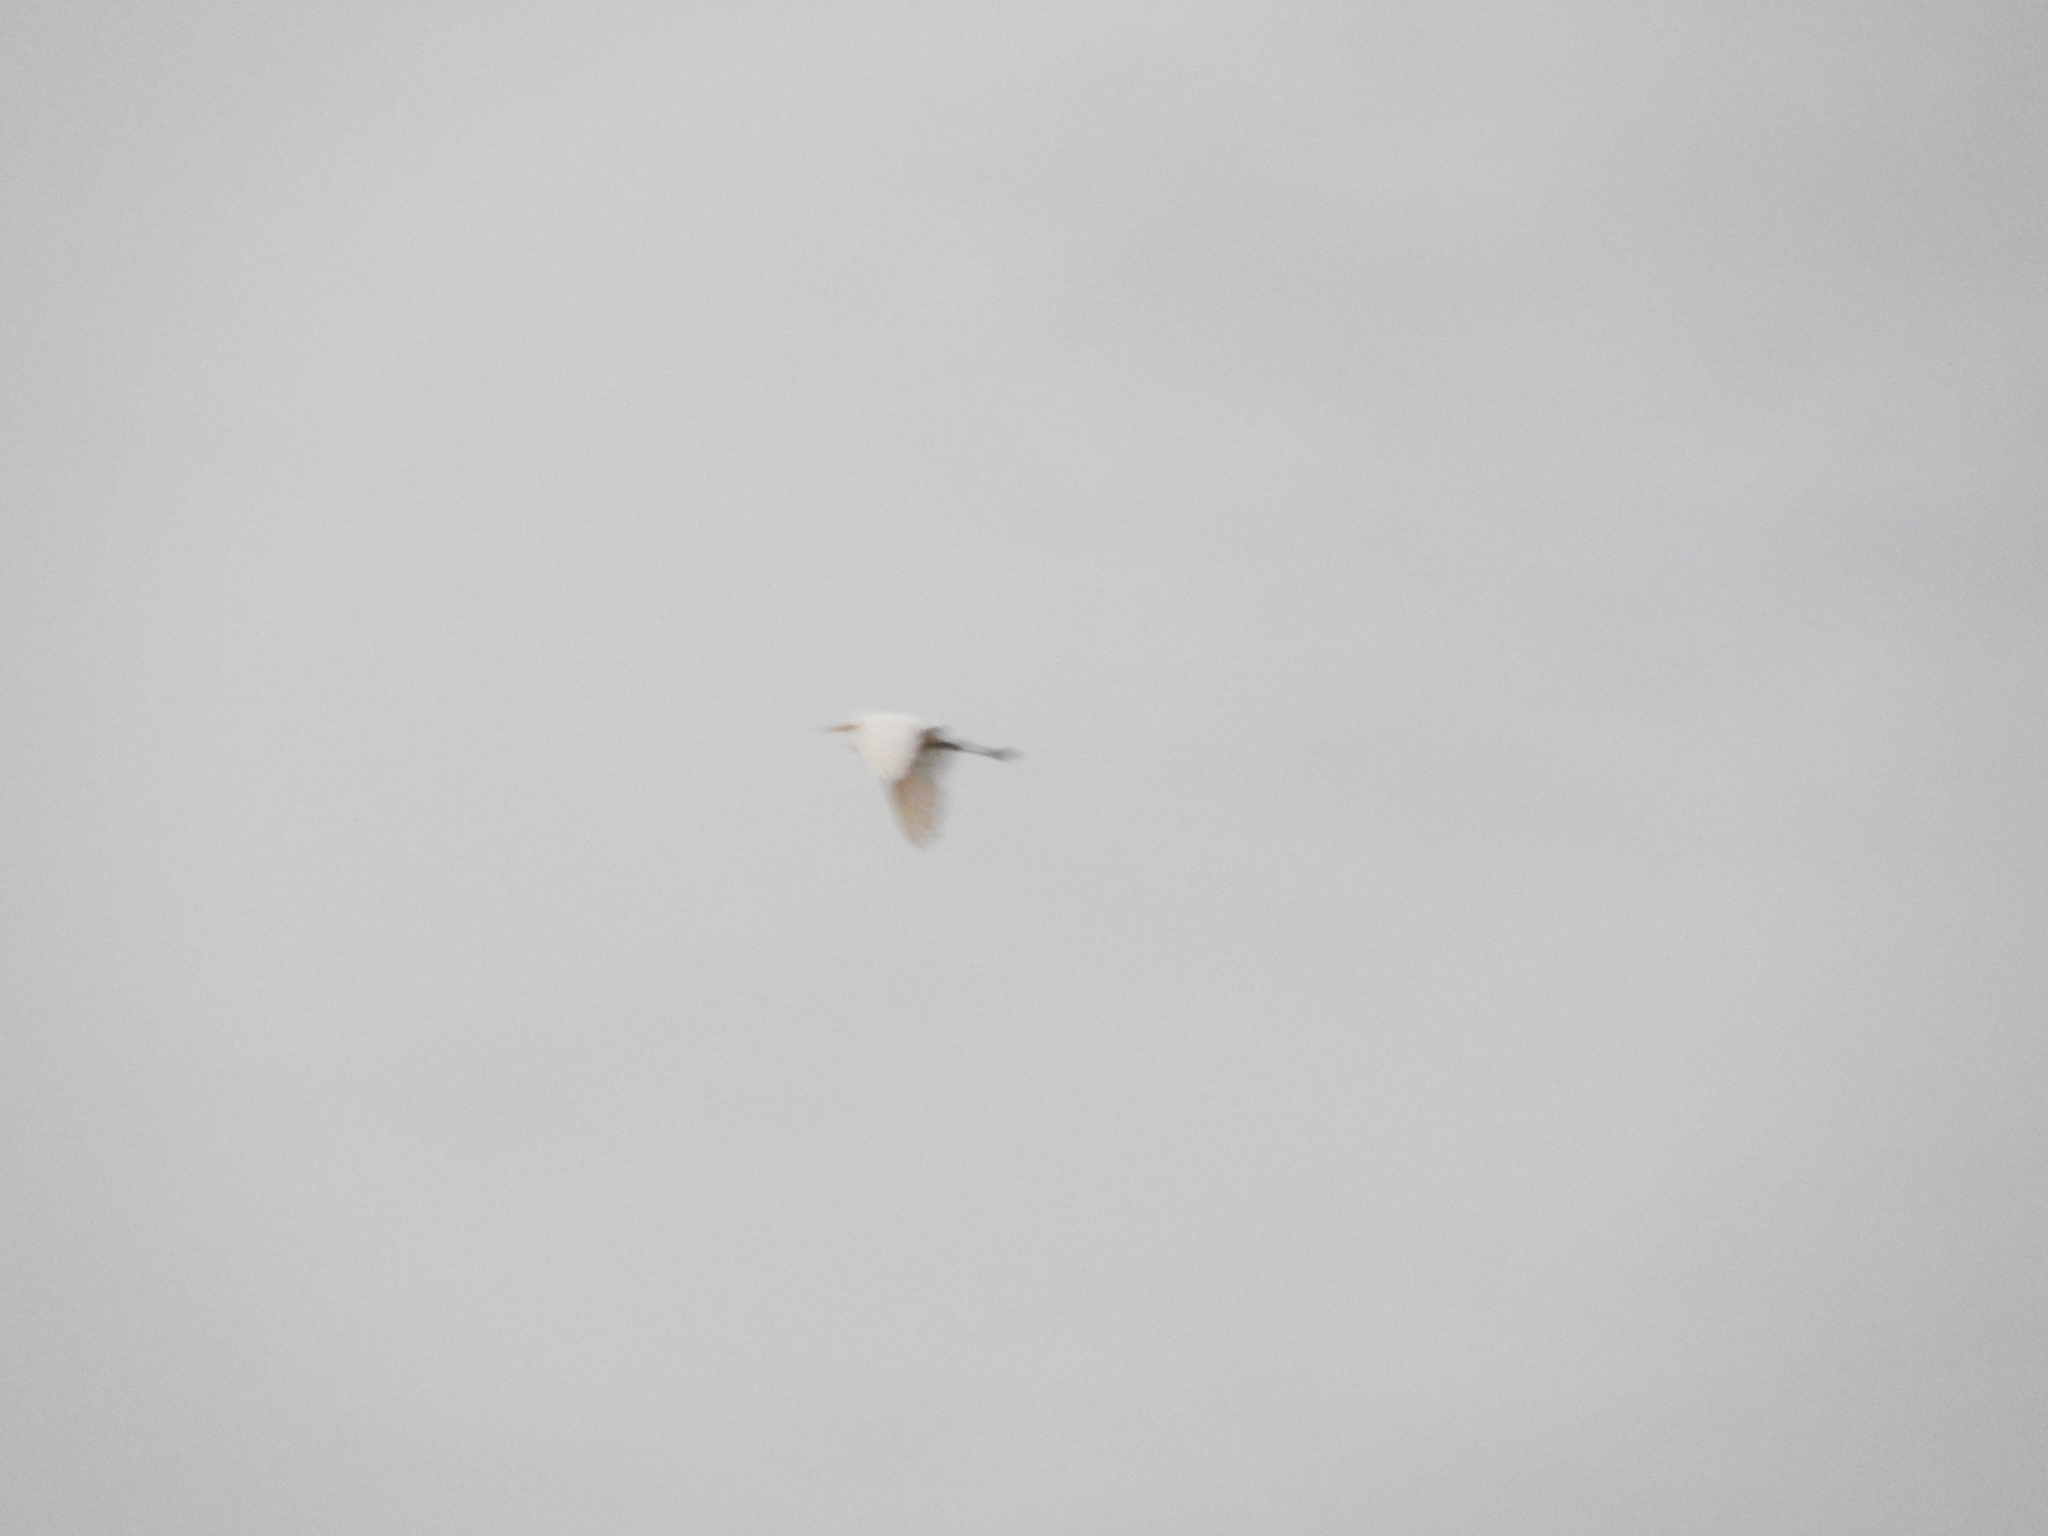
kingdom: Animalia
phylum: Chordata
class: Aves
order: Pelecaniformes
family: Ardeidae
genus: Bubulcus
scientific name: Bubulcus ibis
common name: Cattle egret
